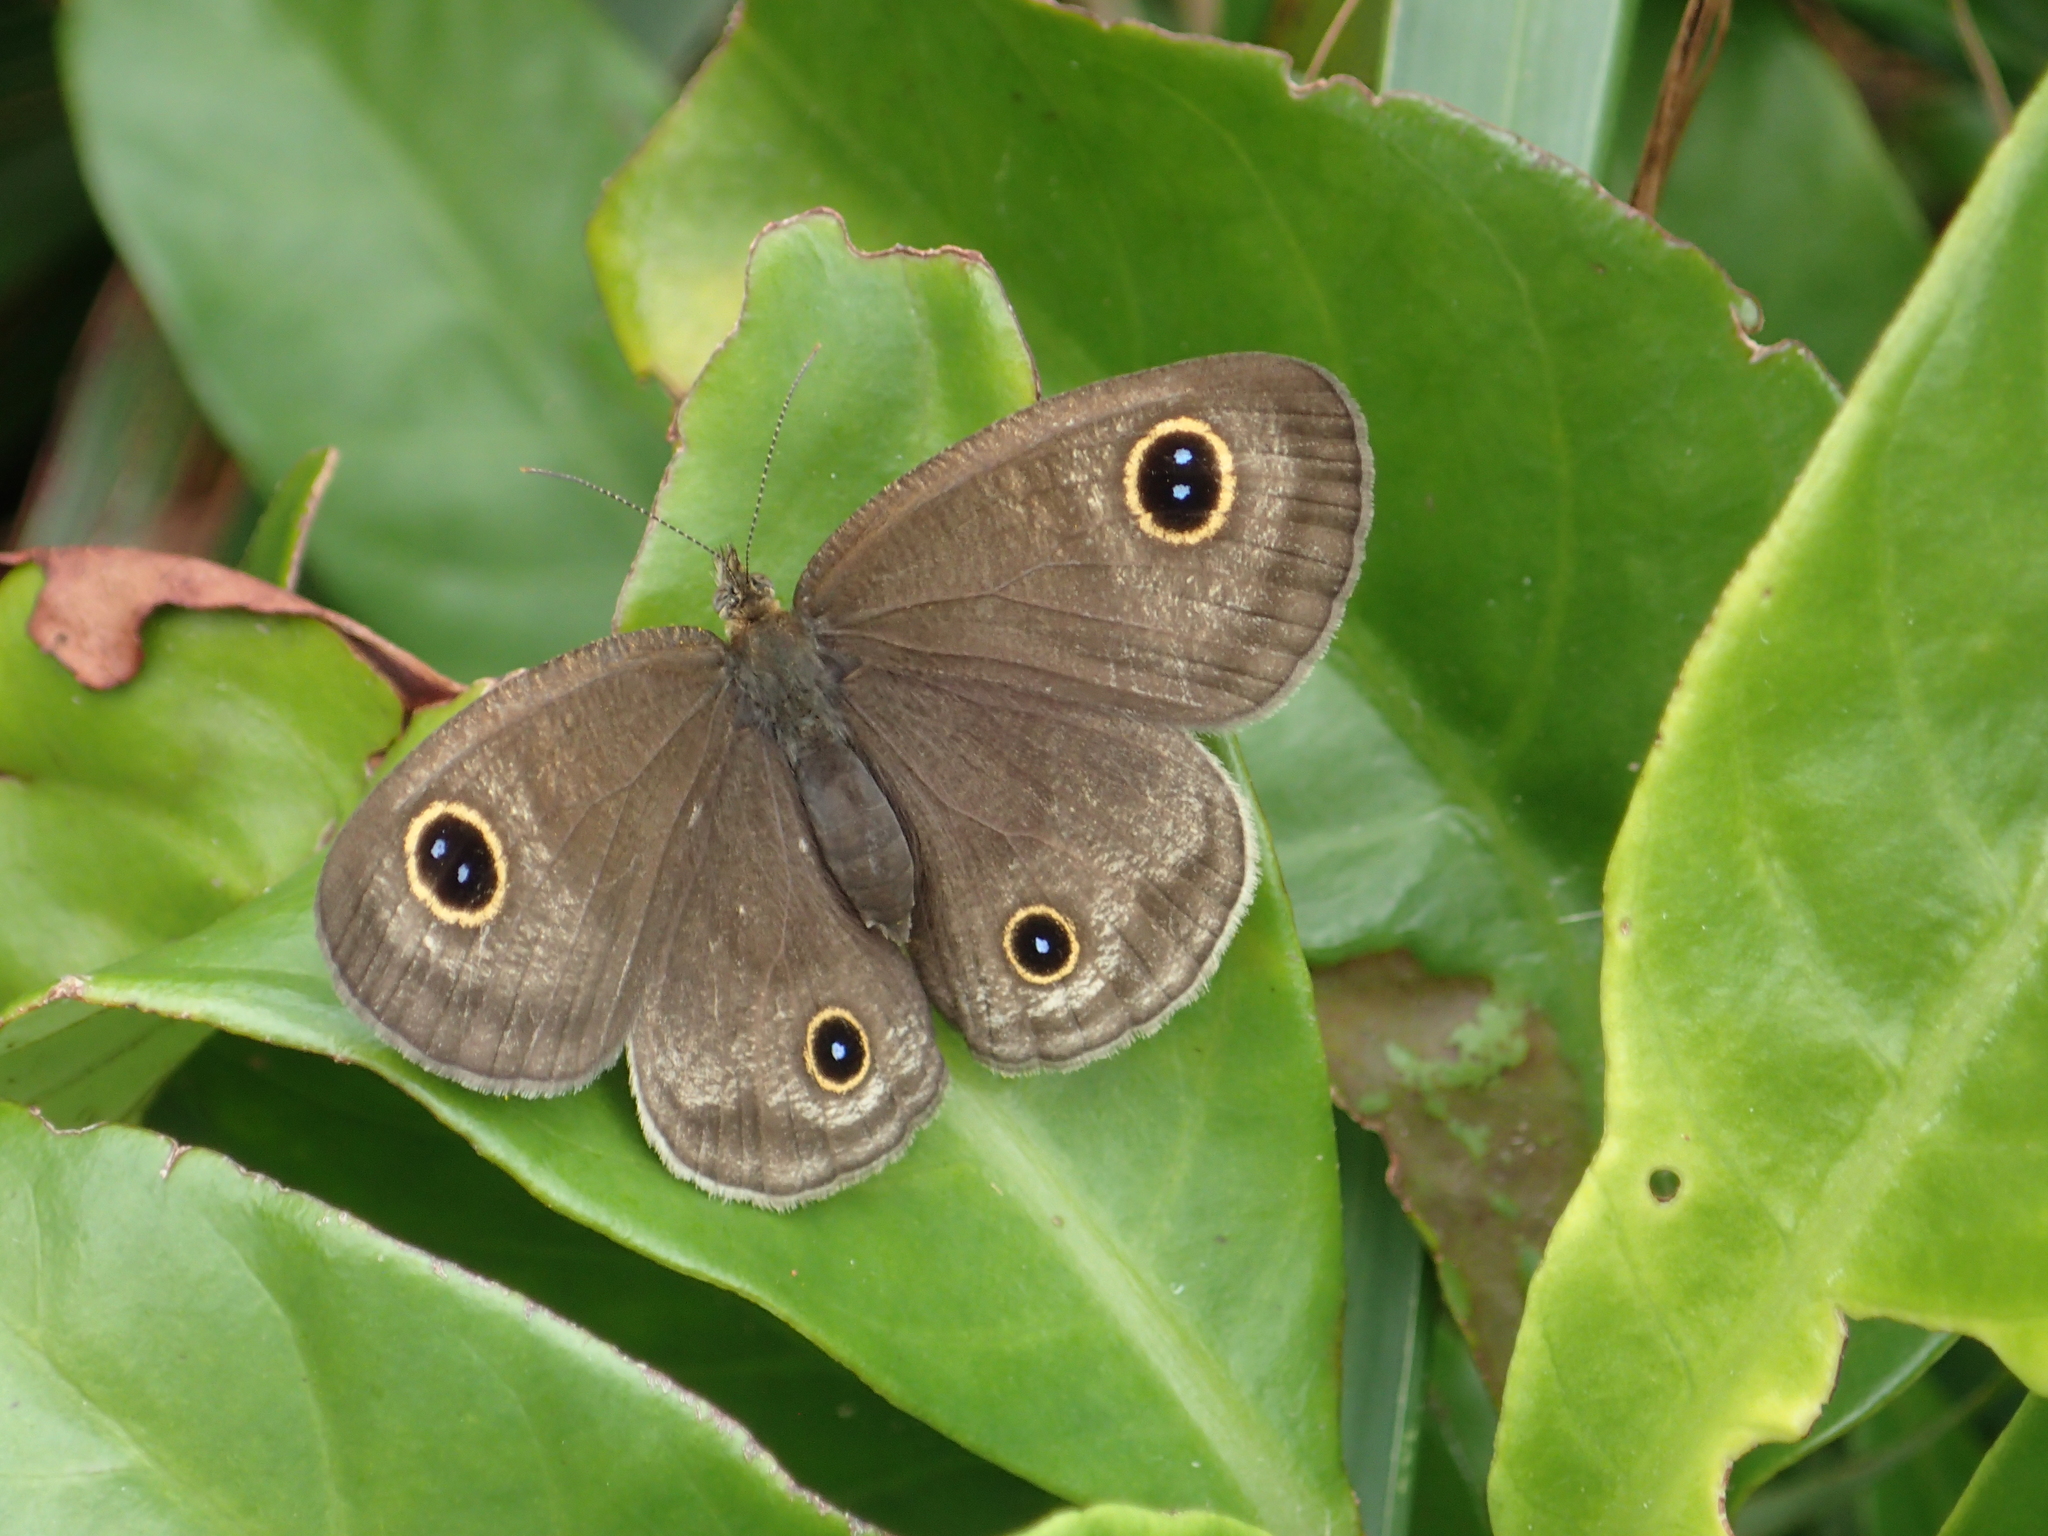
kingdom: Animalia
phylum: Arthropoda
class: Insecta
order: Lepidoptera
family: Nymphalidae
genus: Ypthima
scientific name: Ypthima multistriata
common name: Striated ringlet
